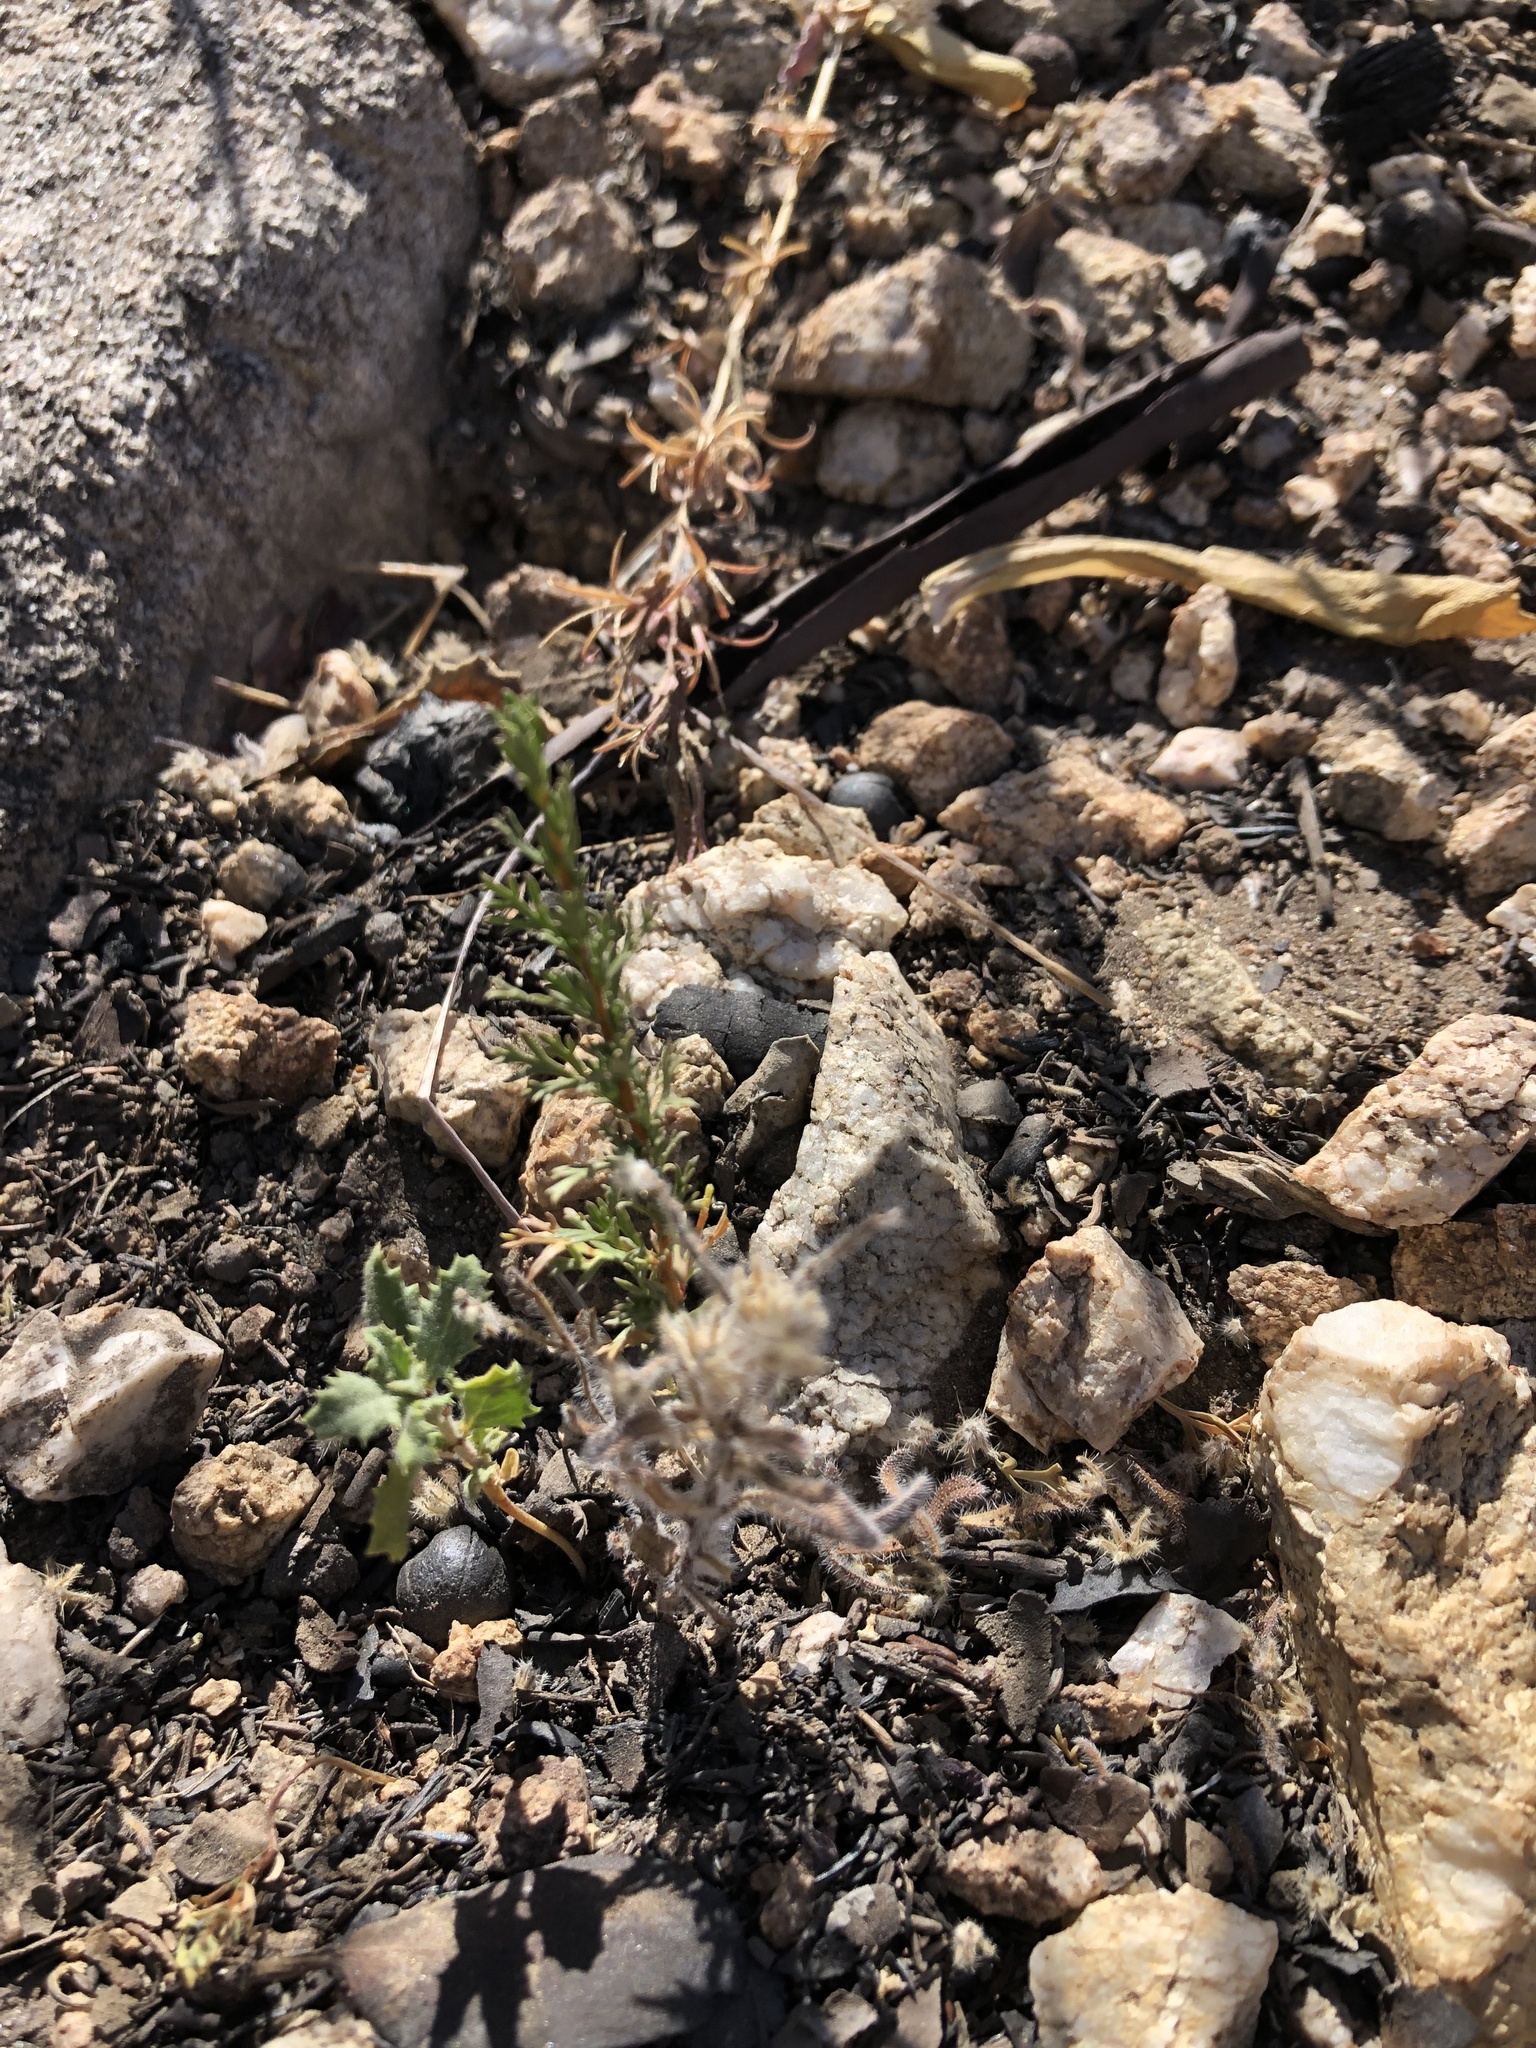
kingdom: Plantae
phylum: Tracheophyta
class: Magnoliopsida
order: Rosales
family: Rosaceae
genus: Adenostoma
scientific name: Adenostoma fasciculatum
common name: Chamise
